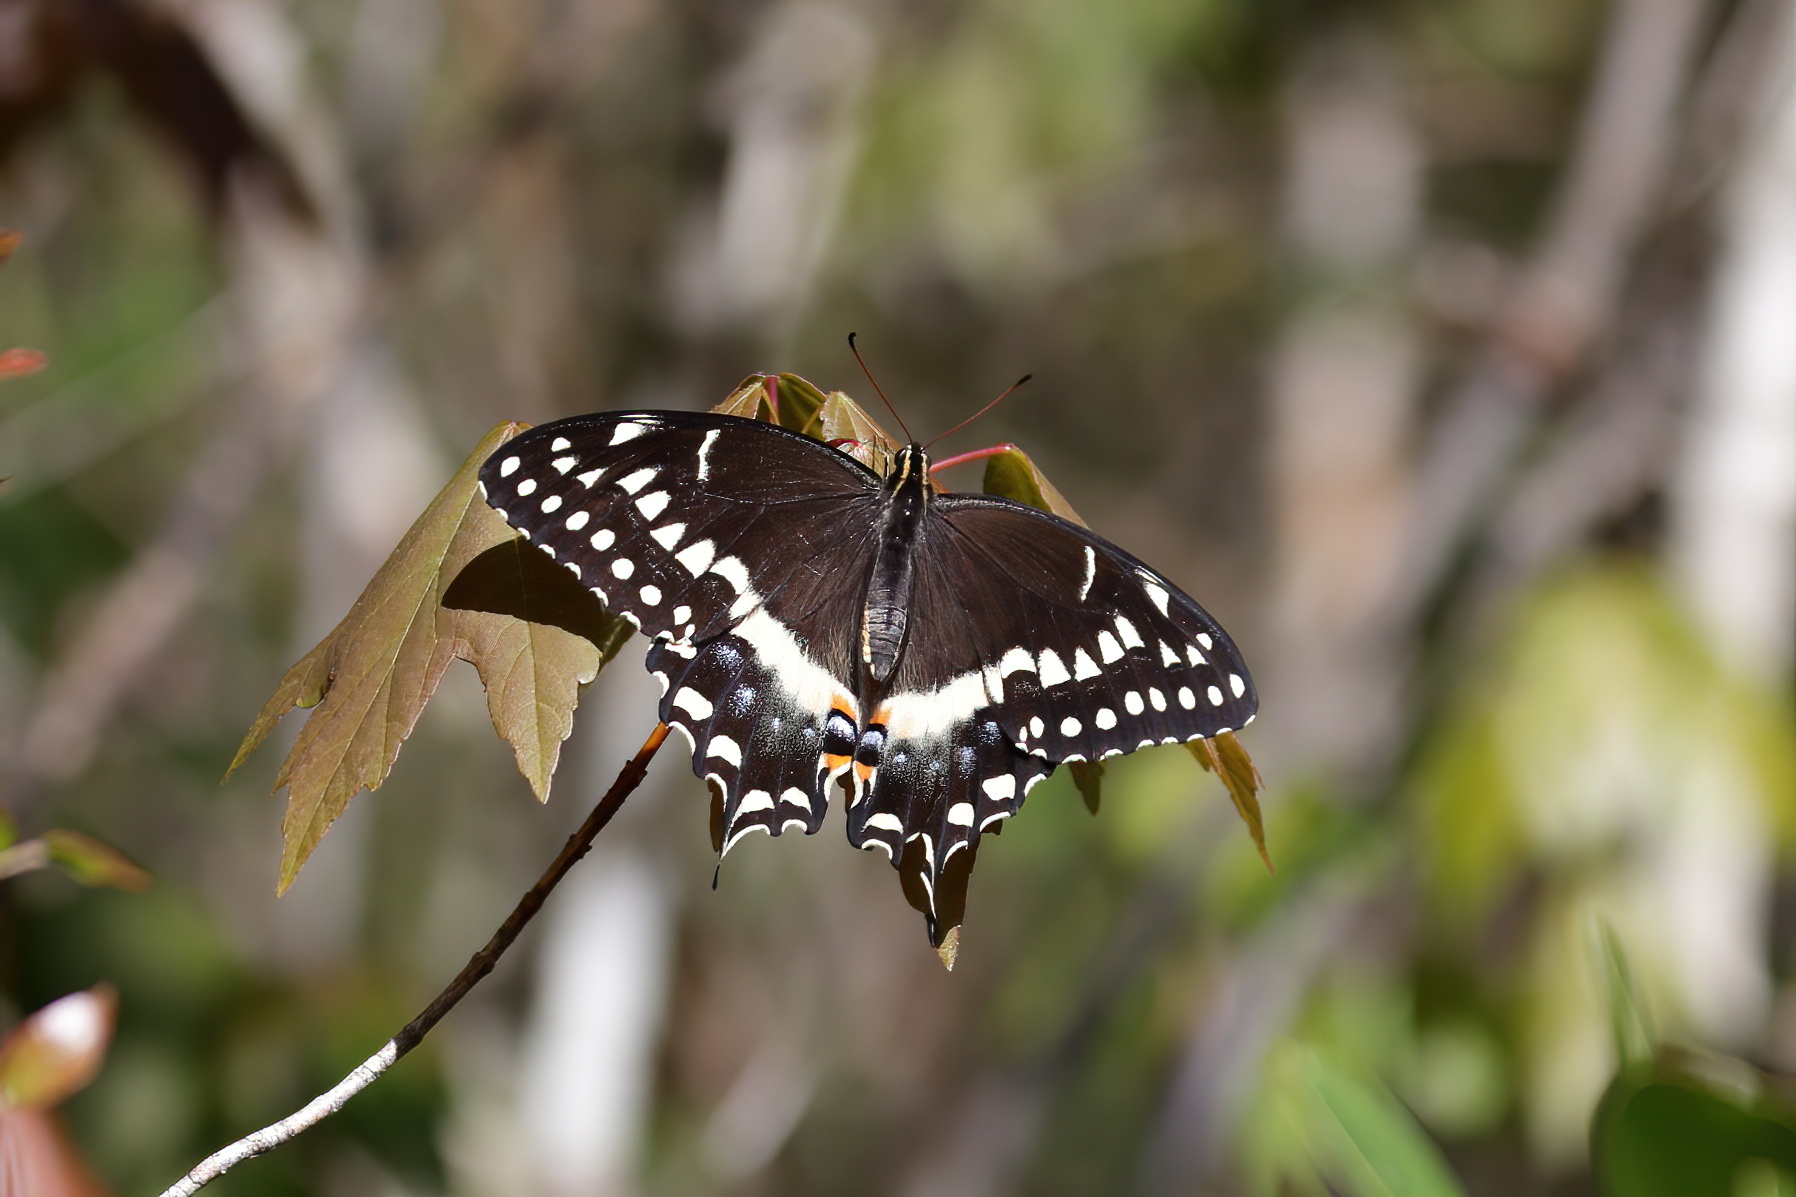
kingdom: Animalia
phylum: Arthropoda
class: Insecta
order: Lepidoptera
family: Papilionidae
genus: Papilio
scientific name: Papilio palamedes
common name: Palamedes swallowtail
